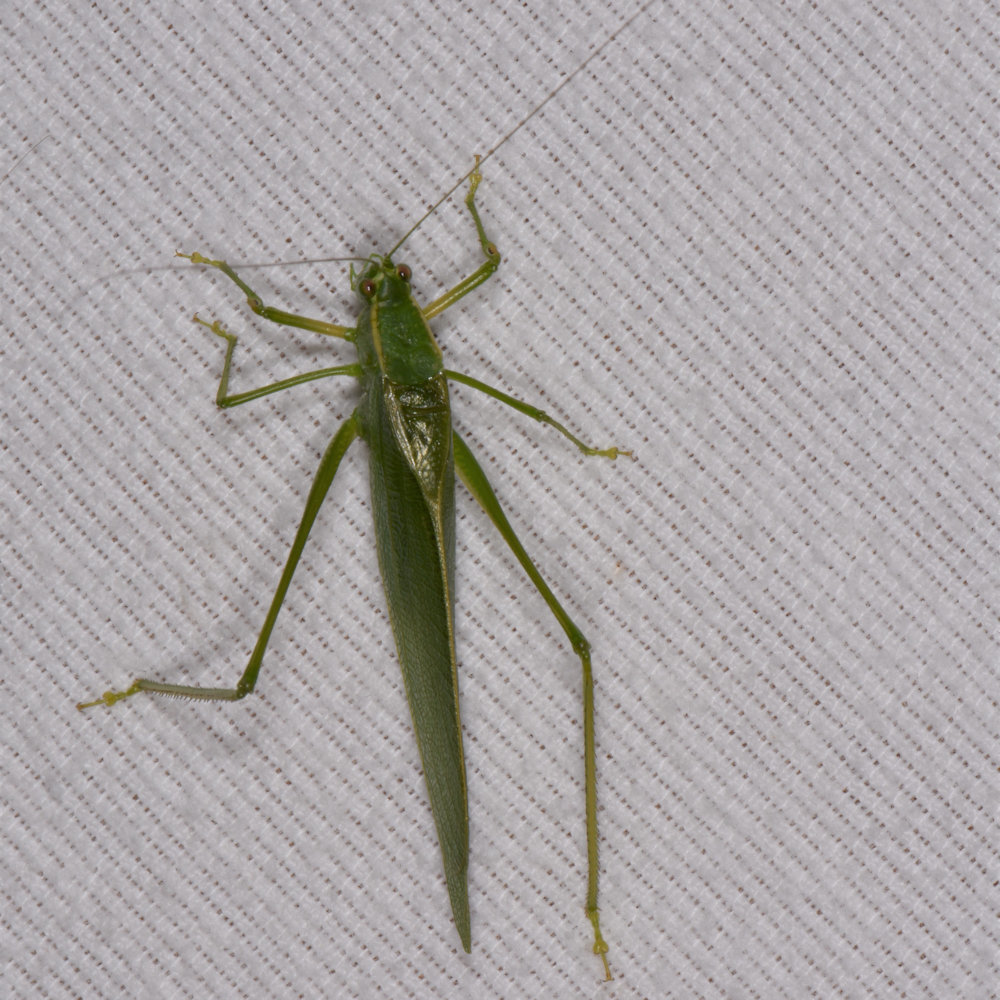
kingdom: Animalia
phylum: Arthropoda
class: Insecta
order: Orthoptera
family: Tettigoniidae
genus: Scudderia
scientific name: Scudderia septentrionalis
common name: Northern bush-katydid
